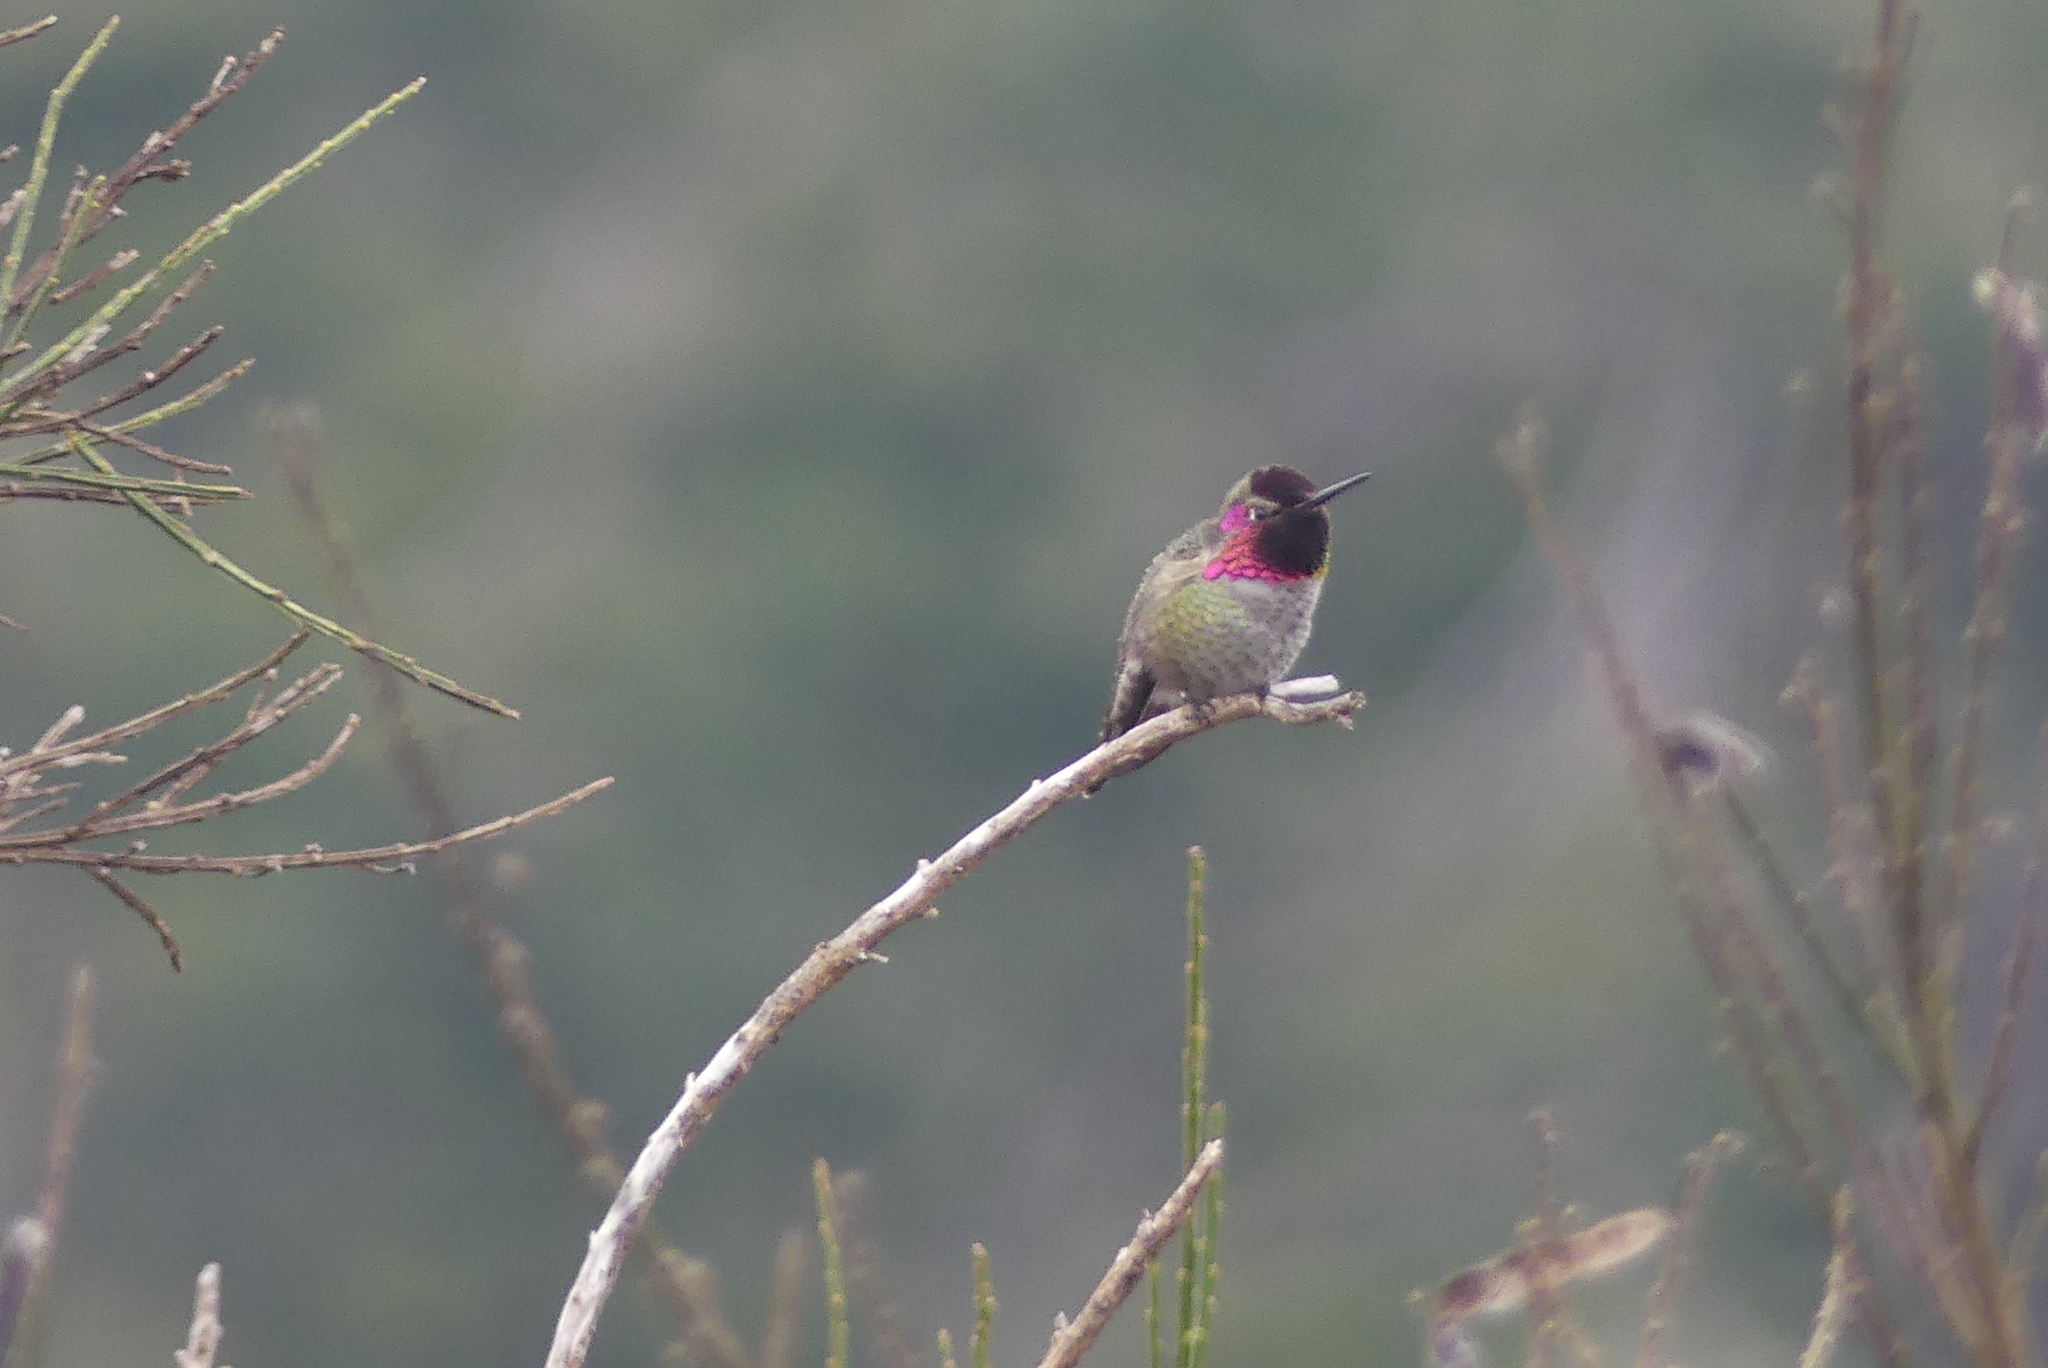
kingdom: Animalia
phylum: Chordata
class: Aves
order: Apodiformes
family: Trochilidae
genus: Calypte
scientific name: Calypte anna
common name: Anna's hummingbird
